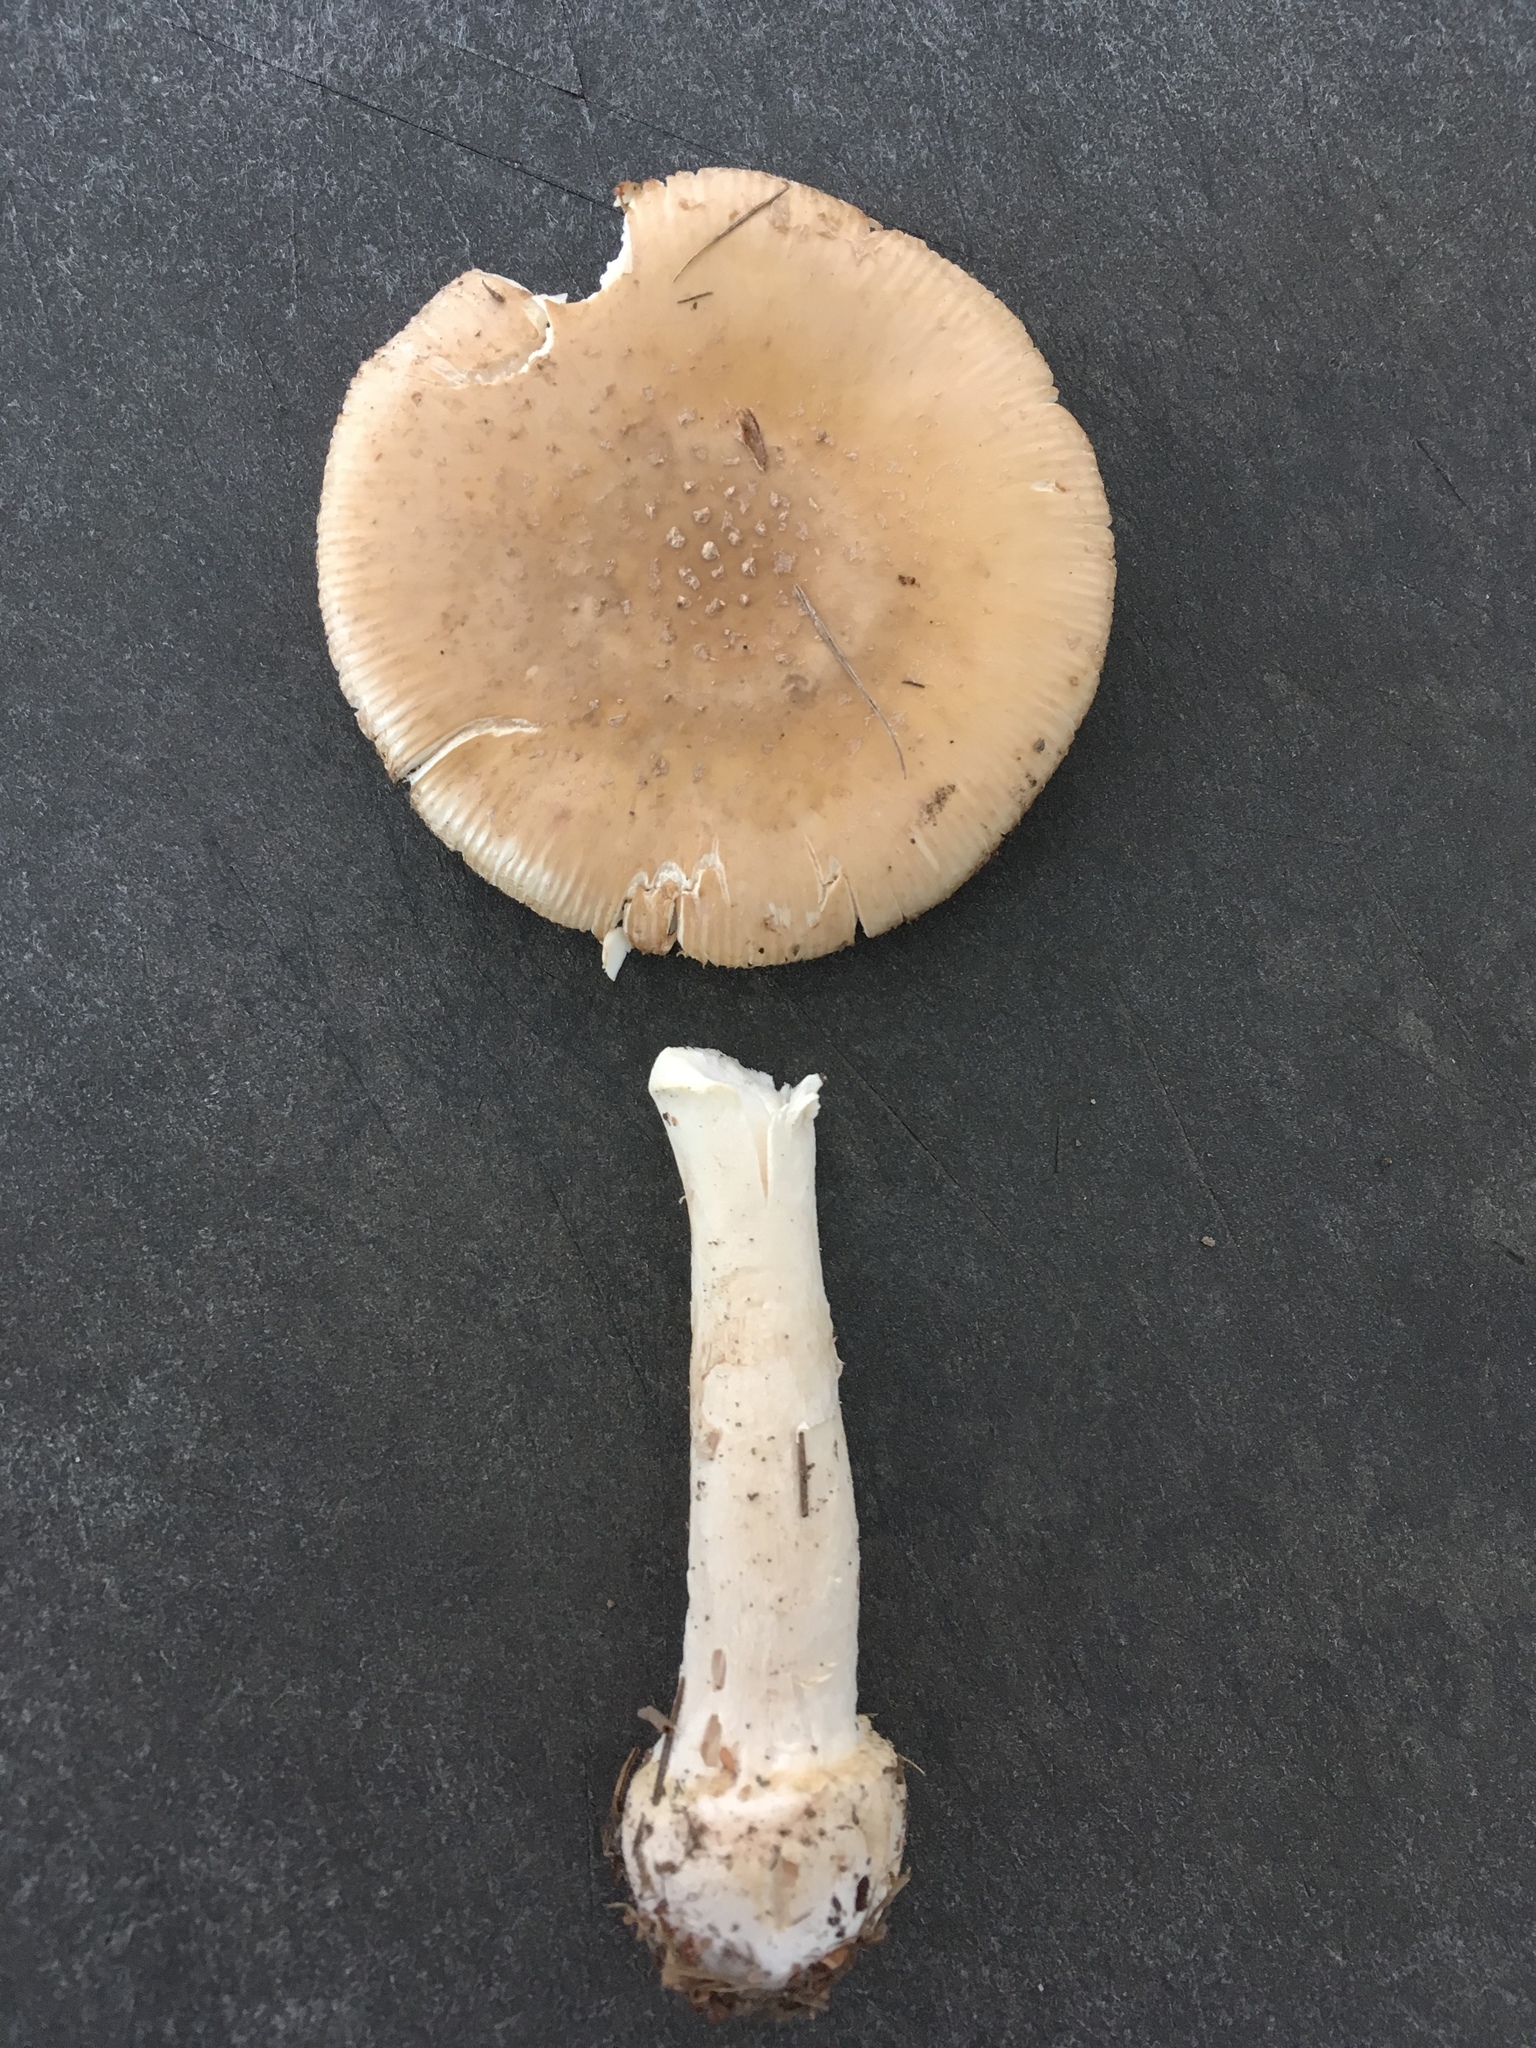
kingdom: Fungi
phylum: Basidiomycota
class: Agaricomycetes
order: Agaricales
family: Amanitaceae
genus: Amanita
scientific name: Amanita crenulata
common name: Poison champagne amanita
